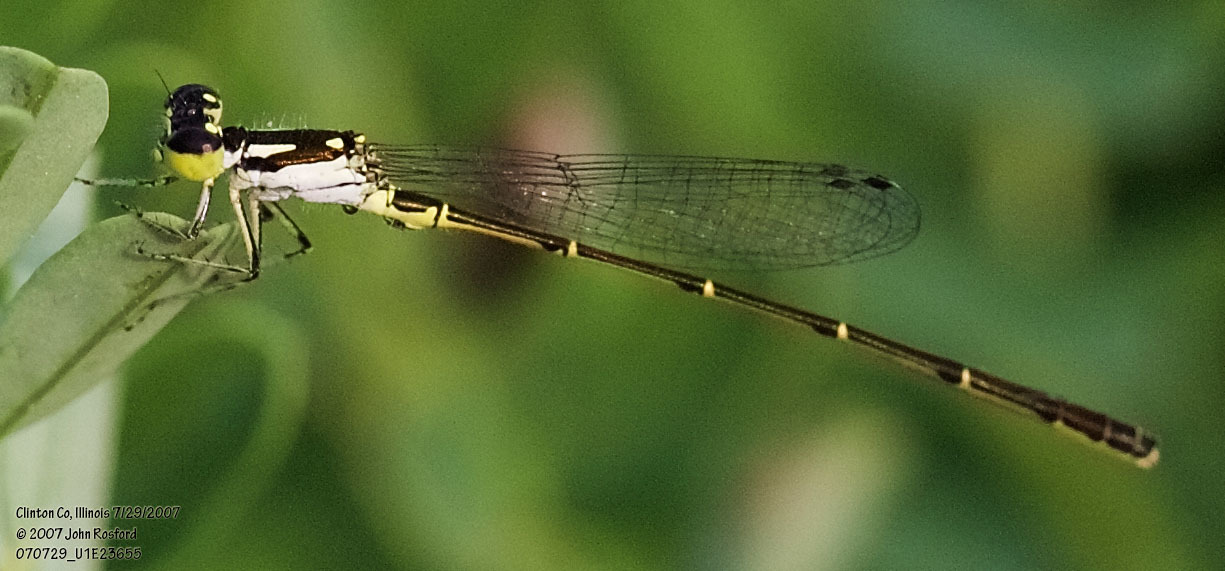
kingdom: Animalia
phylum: Arthropoda
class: Insecta
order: Odonata
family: Coenagrionidae
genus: Ischnura
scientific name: Ischnura posita
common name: Fragile forktail
